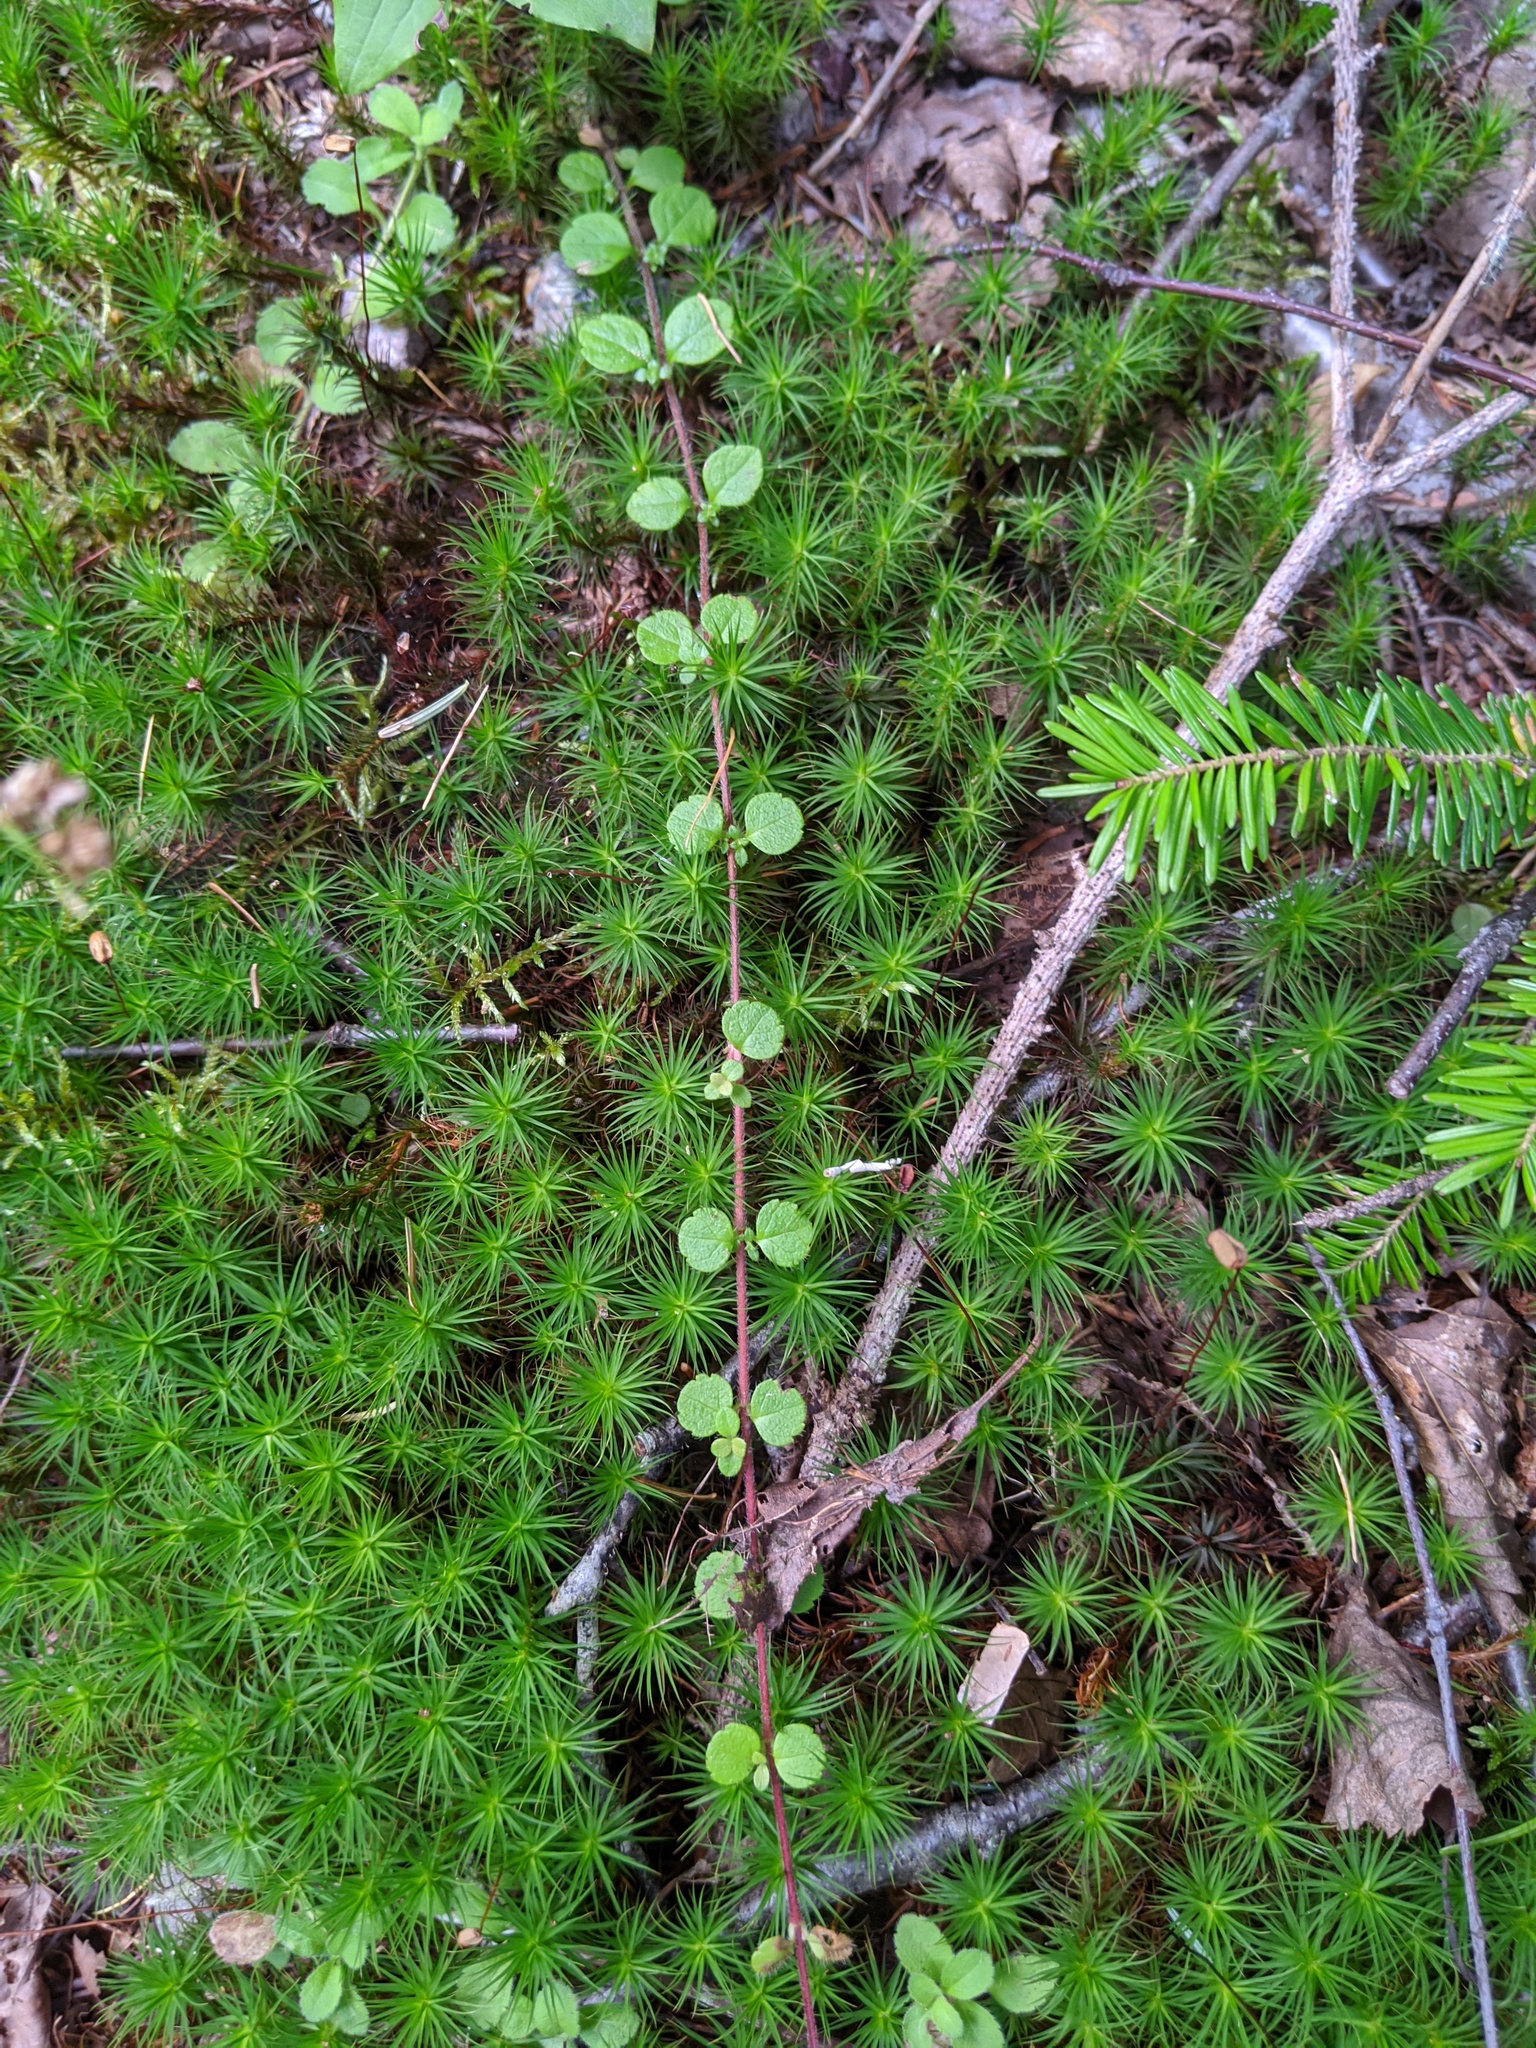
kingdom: Plantae
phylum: Tracheophyta
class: Magnoliopsida
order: Ericales
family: Ericaceae
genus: Gaultheria
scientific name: Gaultheria hispidula
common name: Cancer wintergreen
